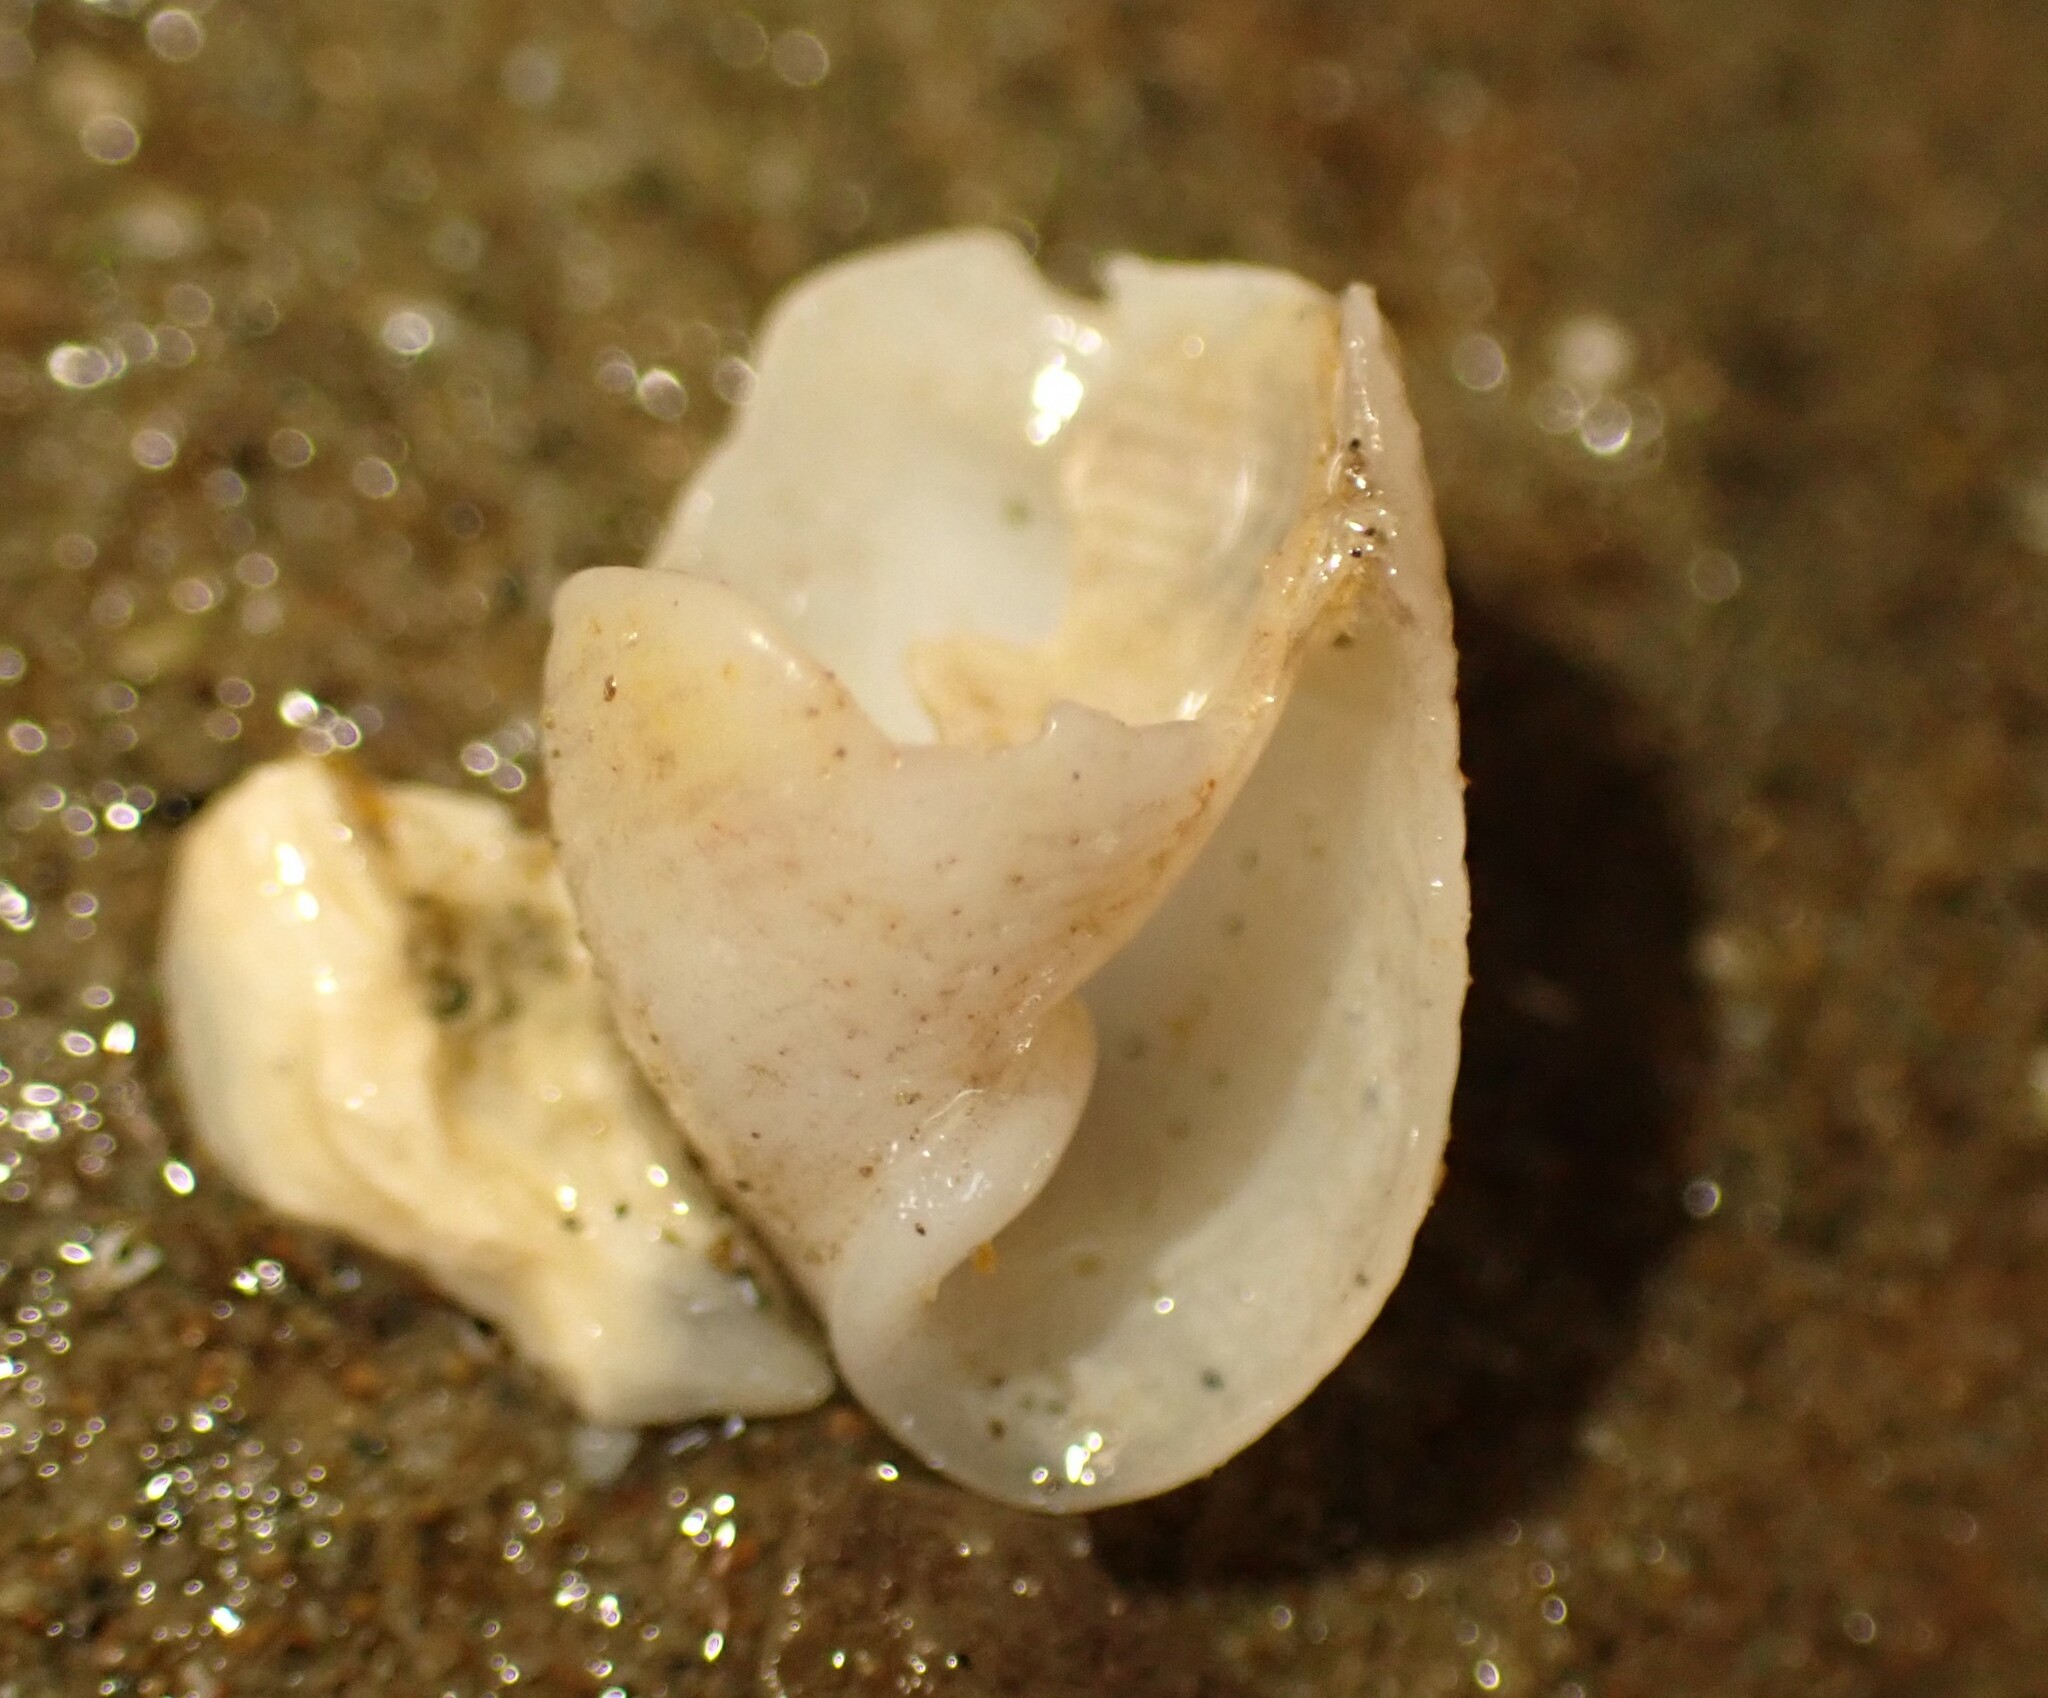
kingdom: Animalia
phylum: Mollusca
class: Gastropoda
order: Cephalaspidea
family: Acteonidae
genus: Pupa
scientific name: Pupa affinis
